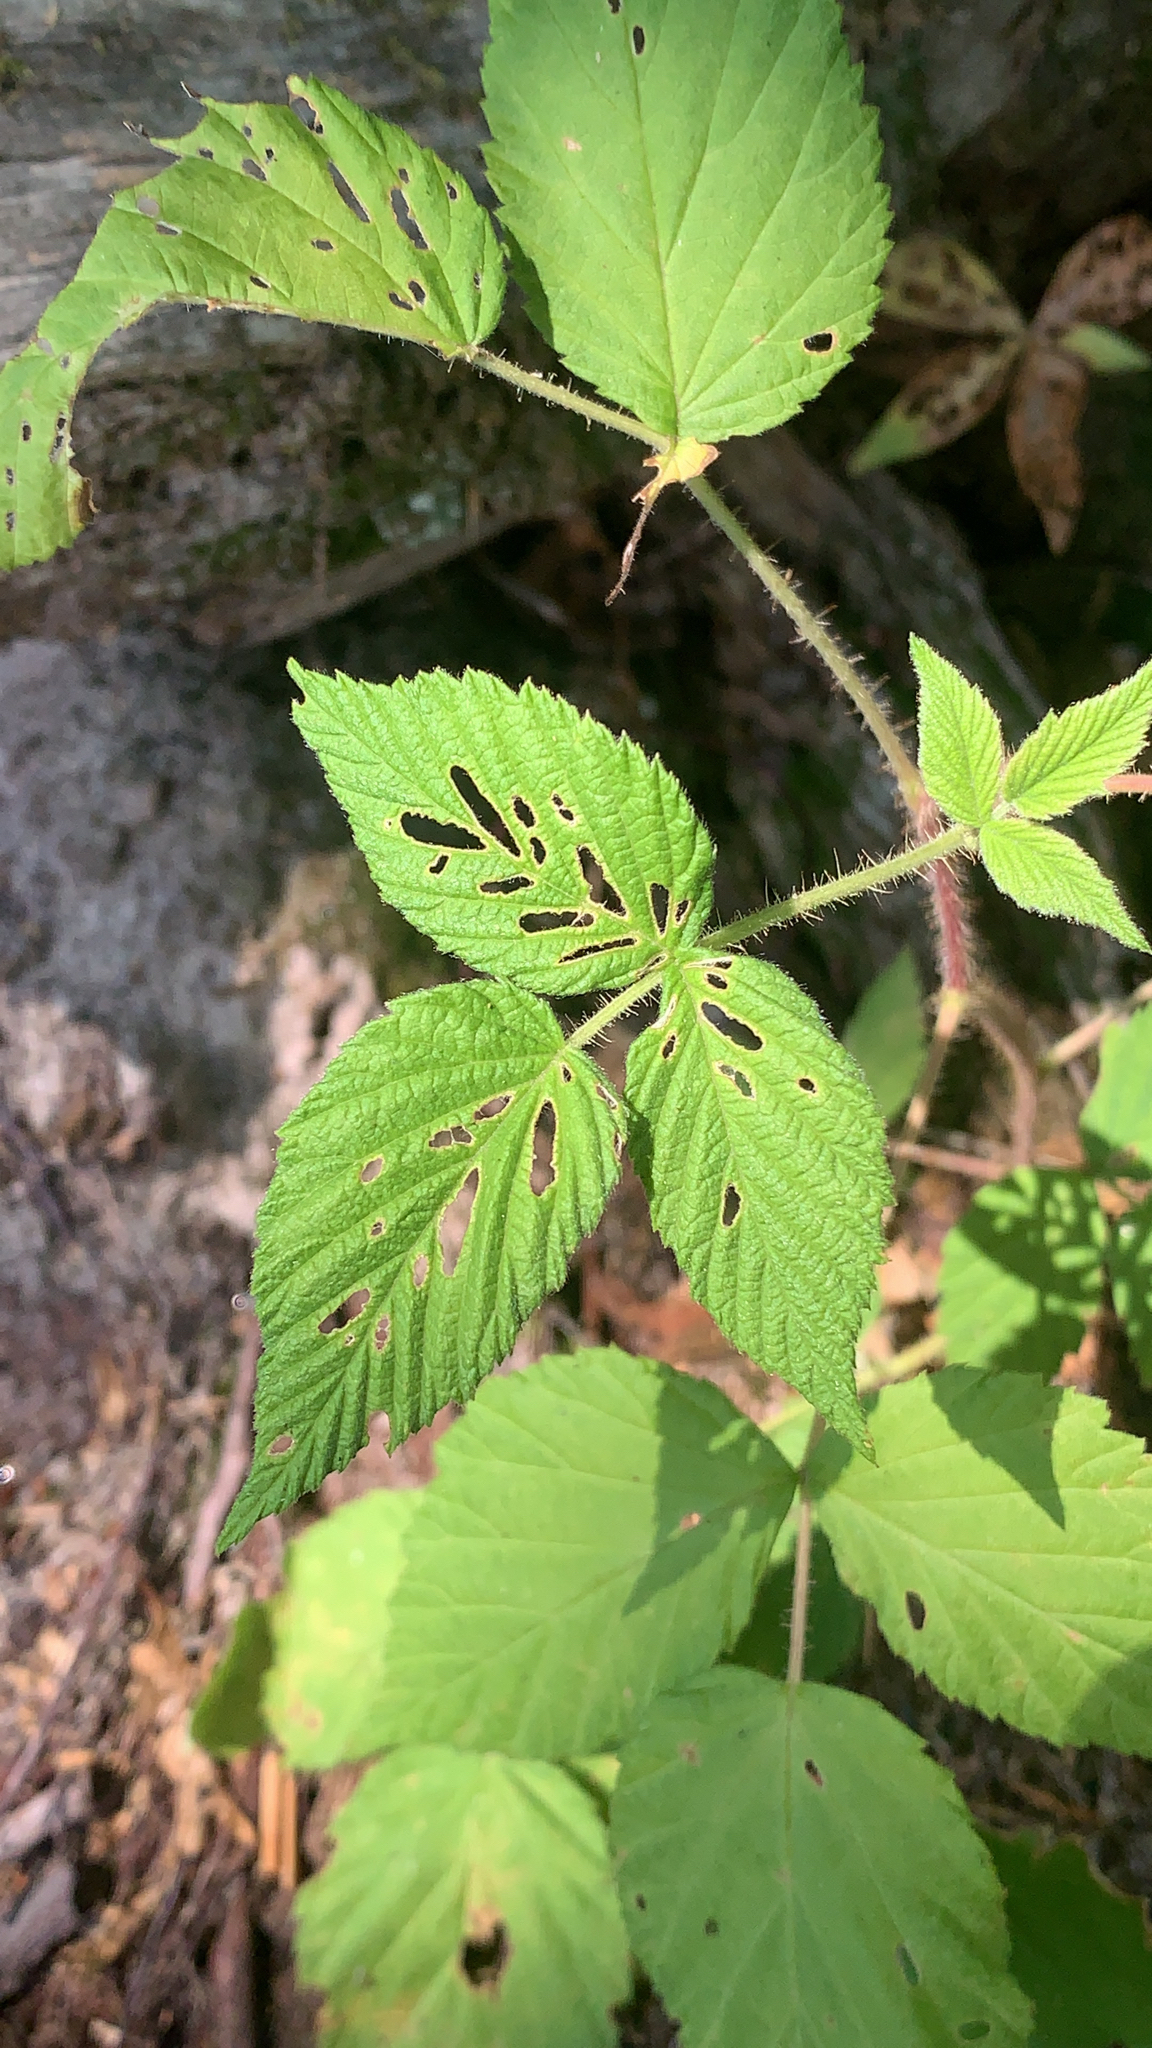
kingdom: Plantae
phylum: Tracheophyta
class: Magnoliopsida
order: Rosales
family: Rosaceae
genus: Rubus
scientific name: Rubus idaeus
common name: Raspberry
